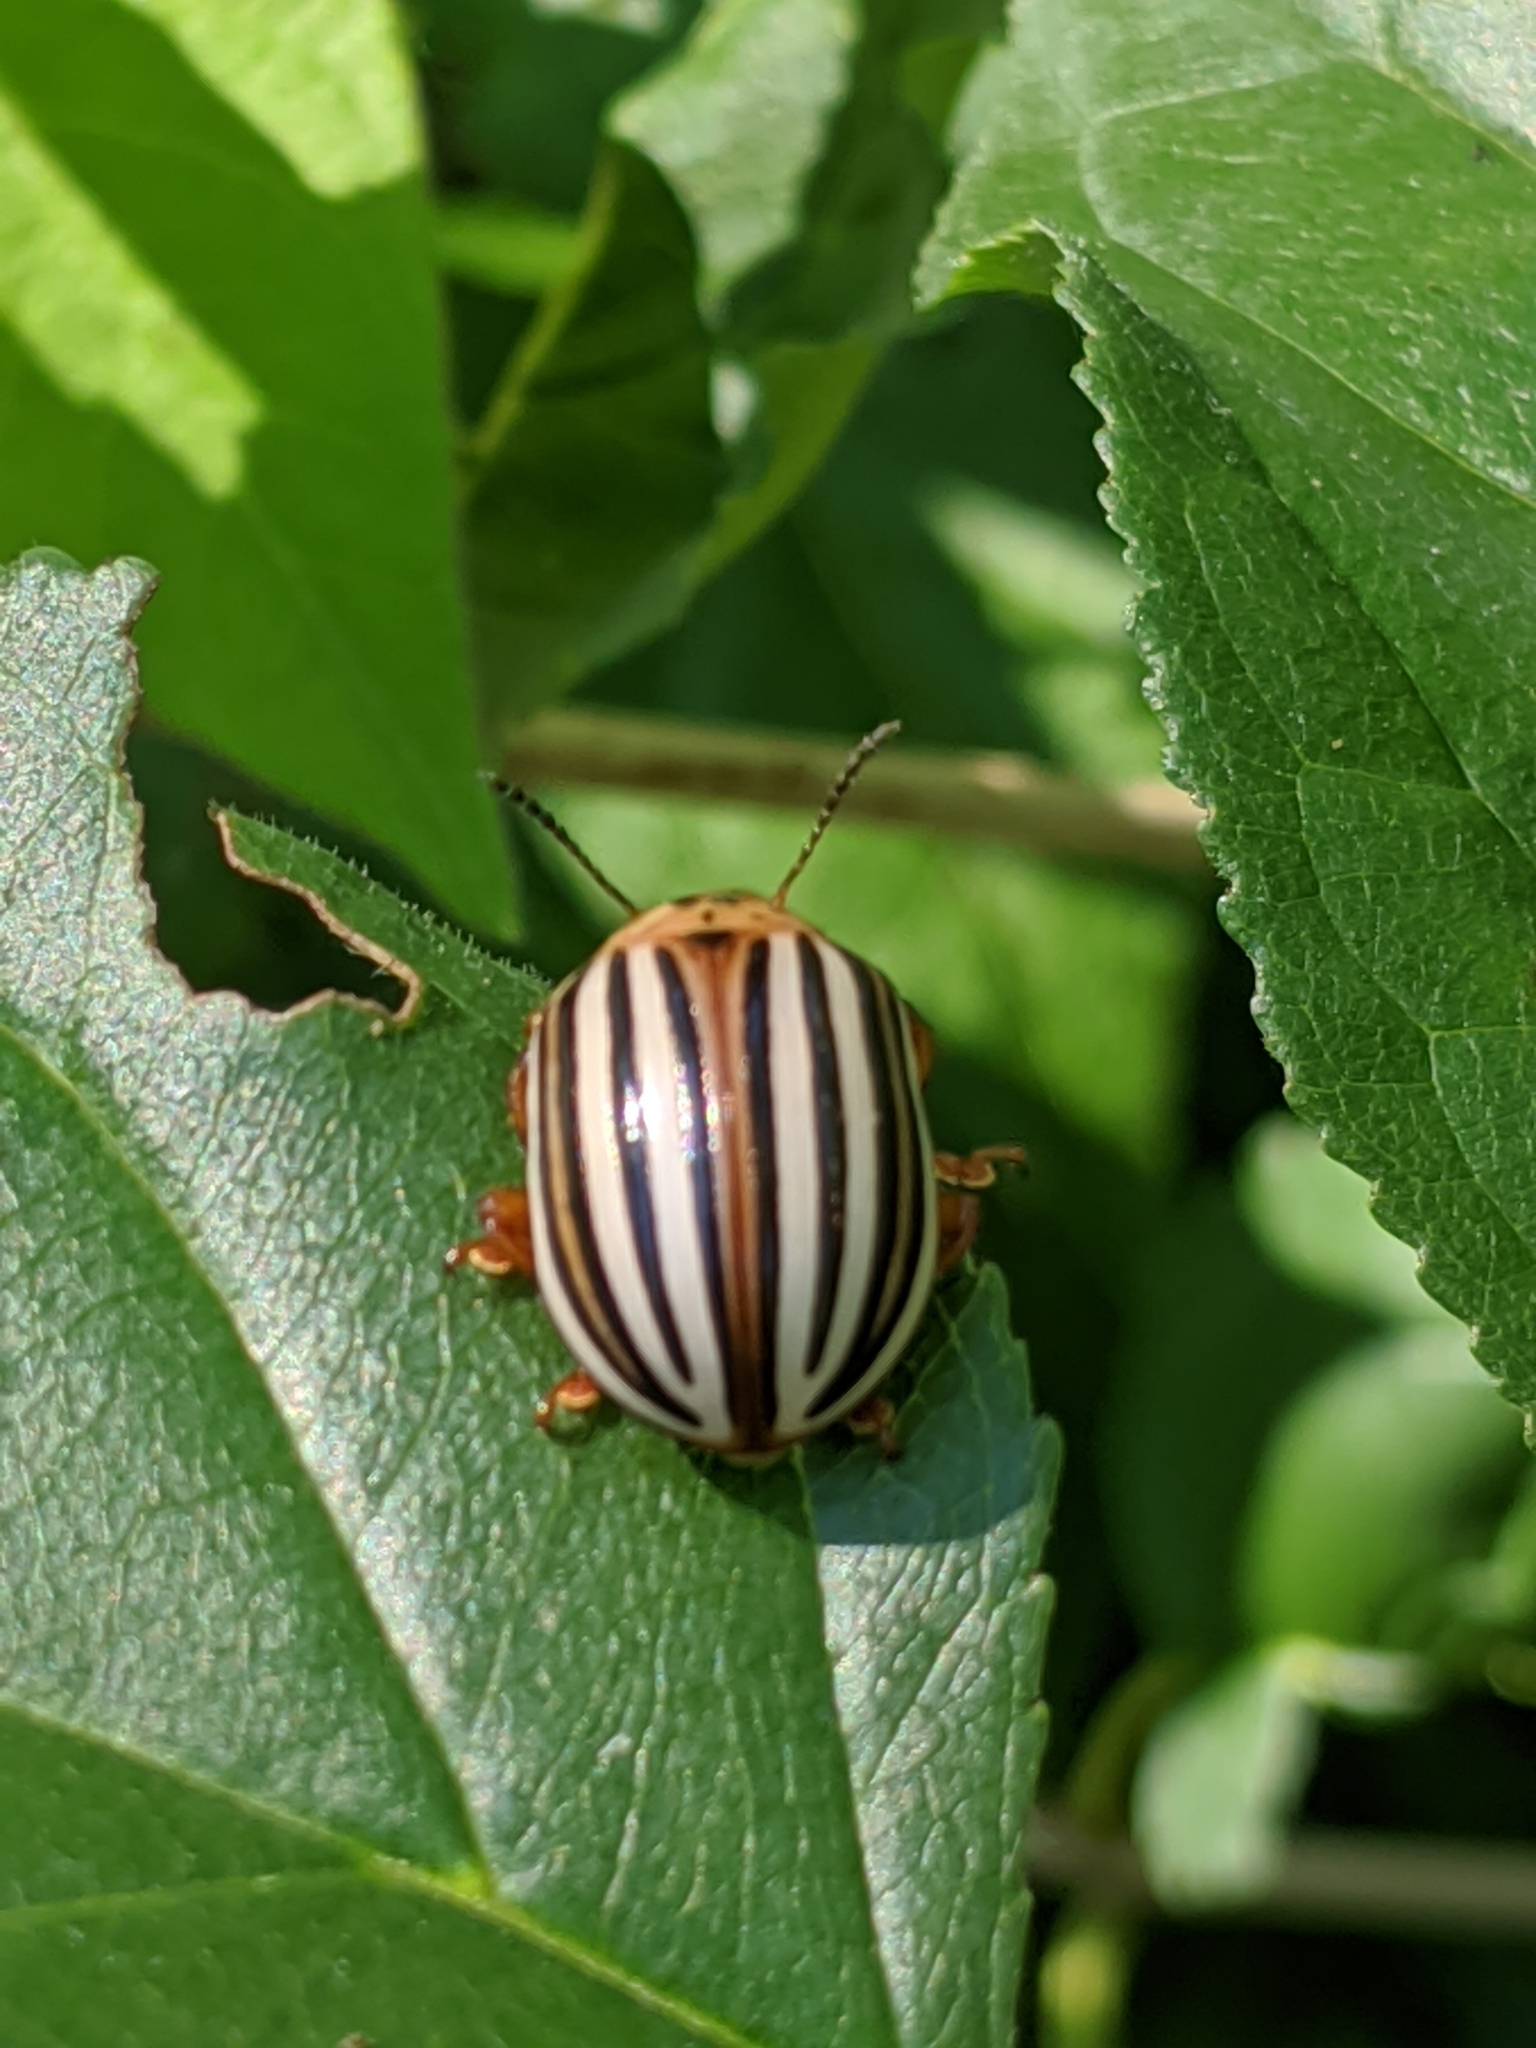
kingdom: Animalia
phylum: Arthropoda
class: Insecta
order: Coleoptera
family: Chrysomelidae
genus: Leptinotarsa
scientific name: Leptinotarsa juncta
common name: False potato beetle
